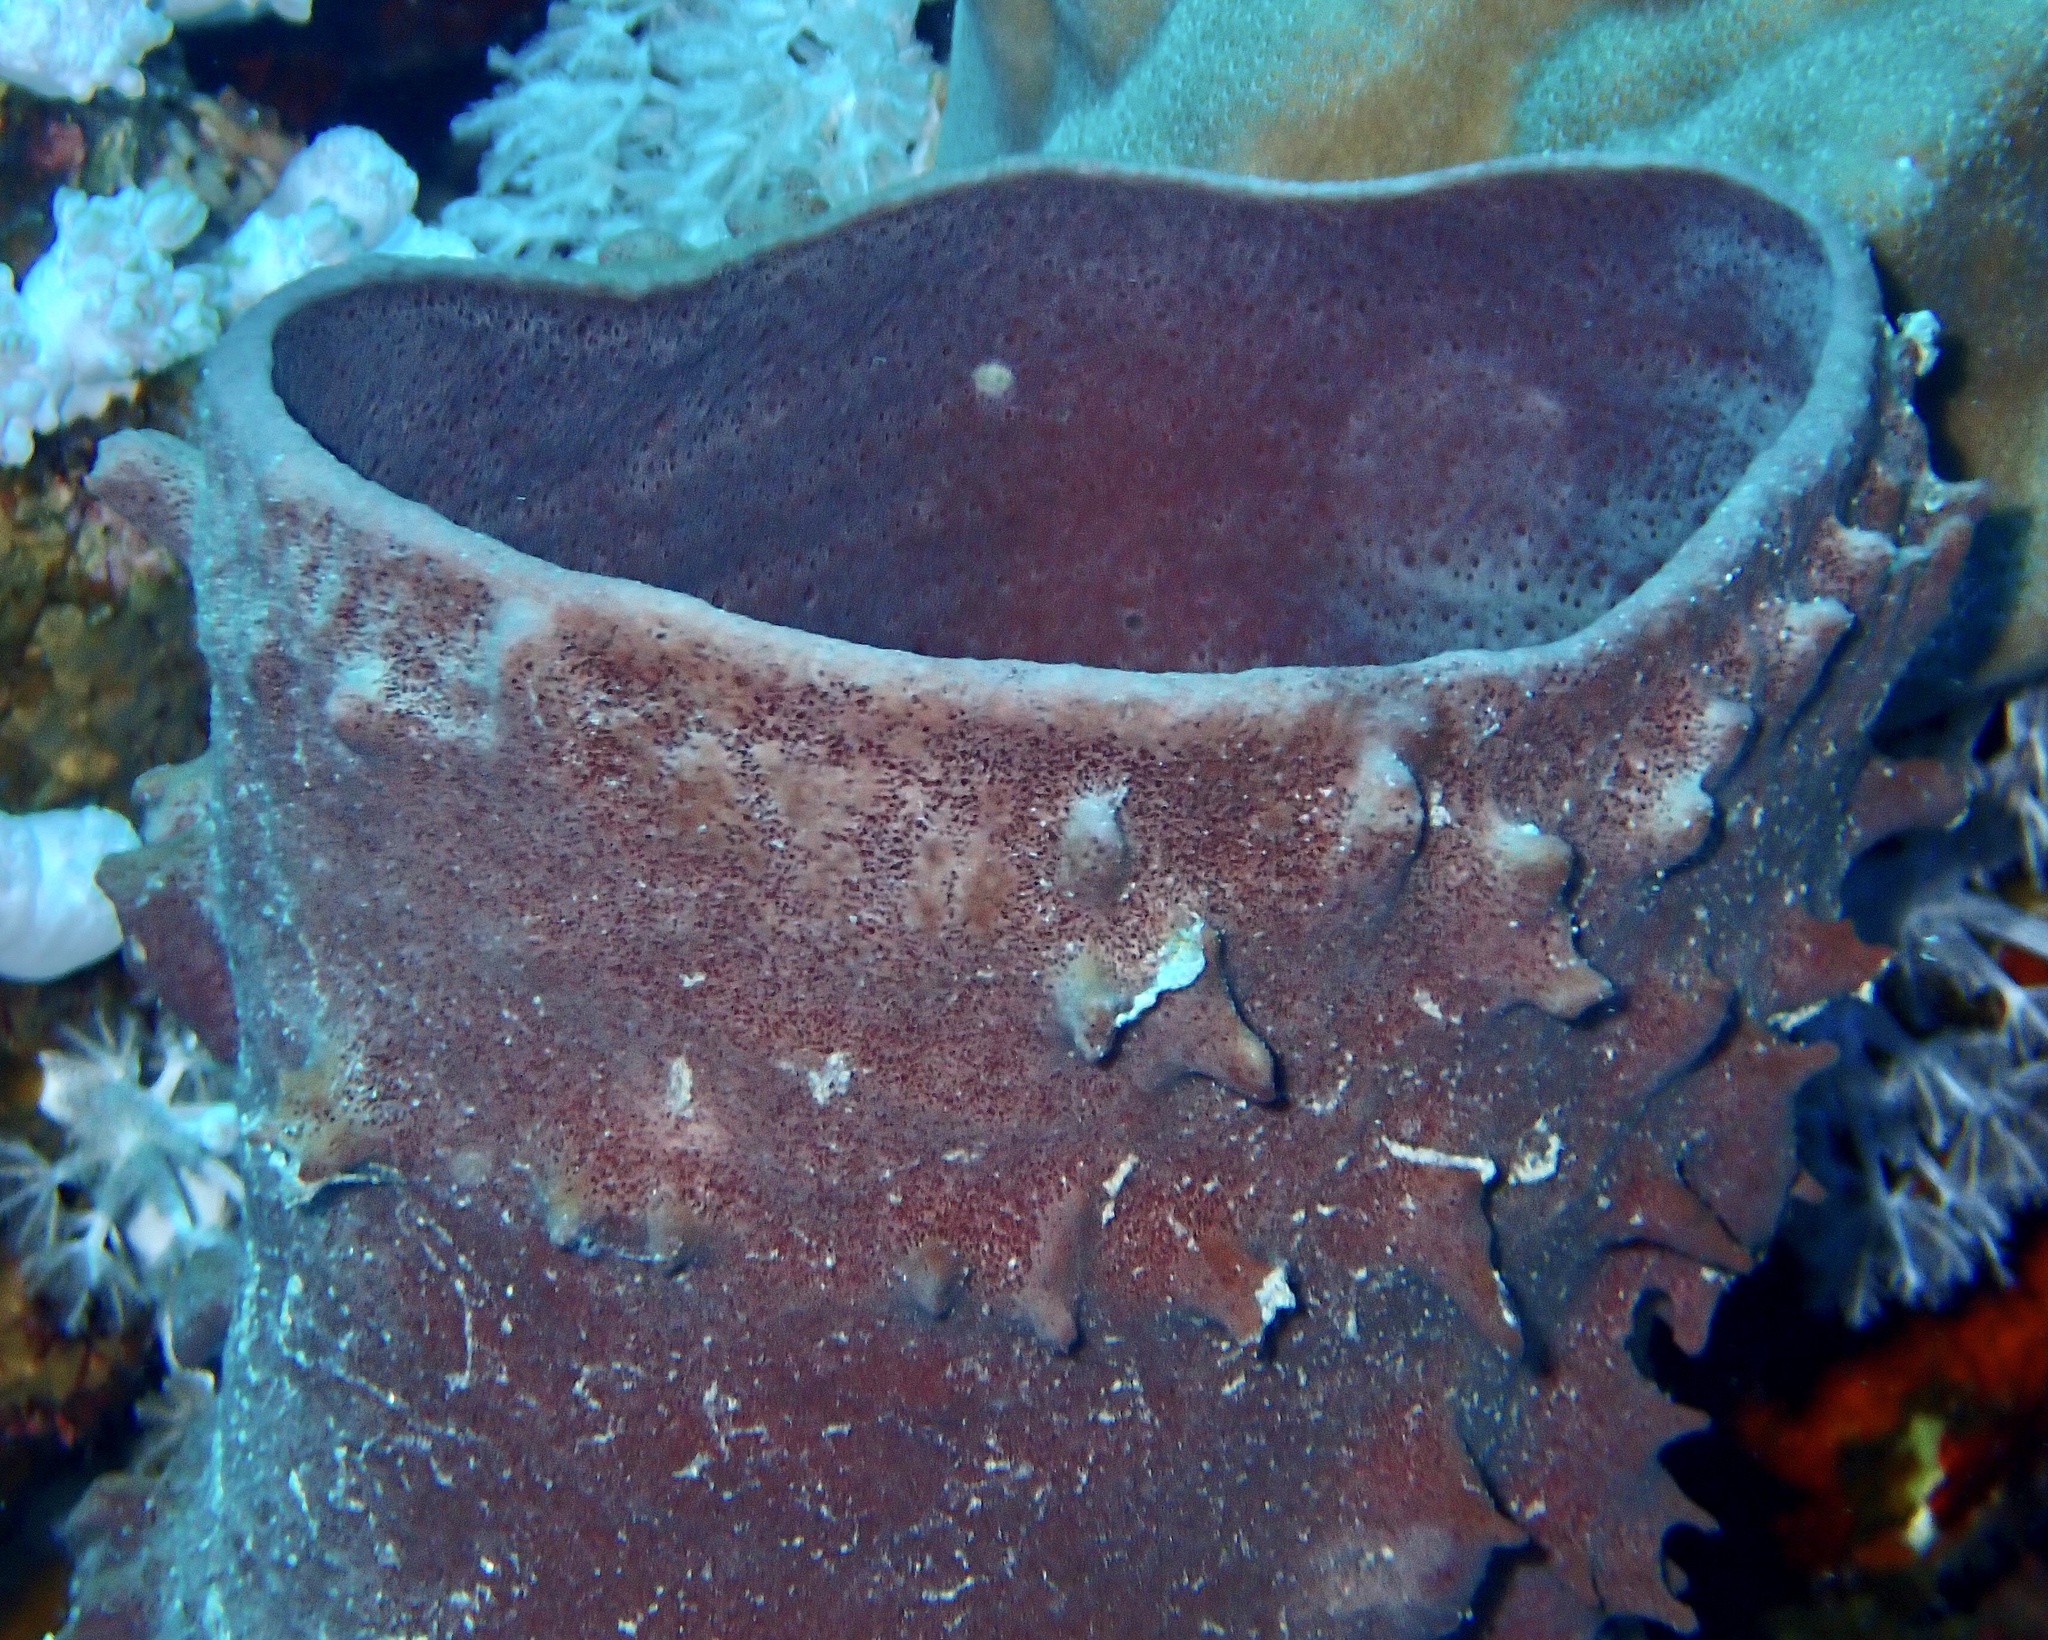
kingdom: Animalia
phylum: Porifera
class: Demospongiae
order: Haplosclerida
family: Callyspongiidae
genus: Callyspongia
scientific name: Callyspongia crassa
